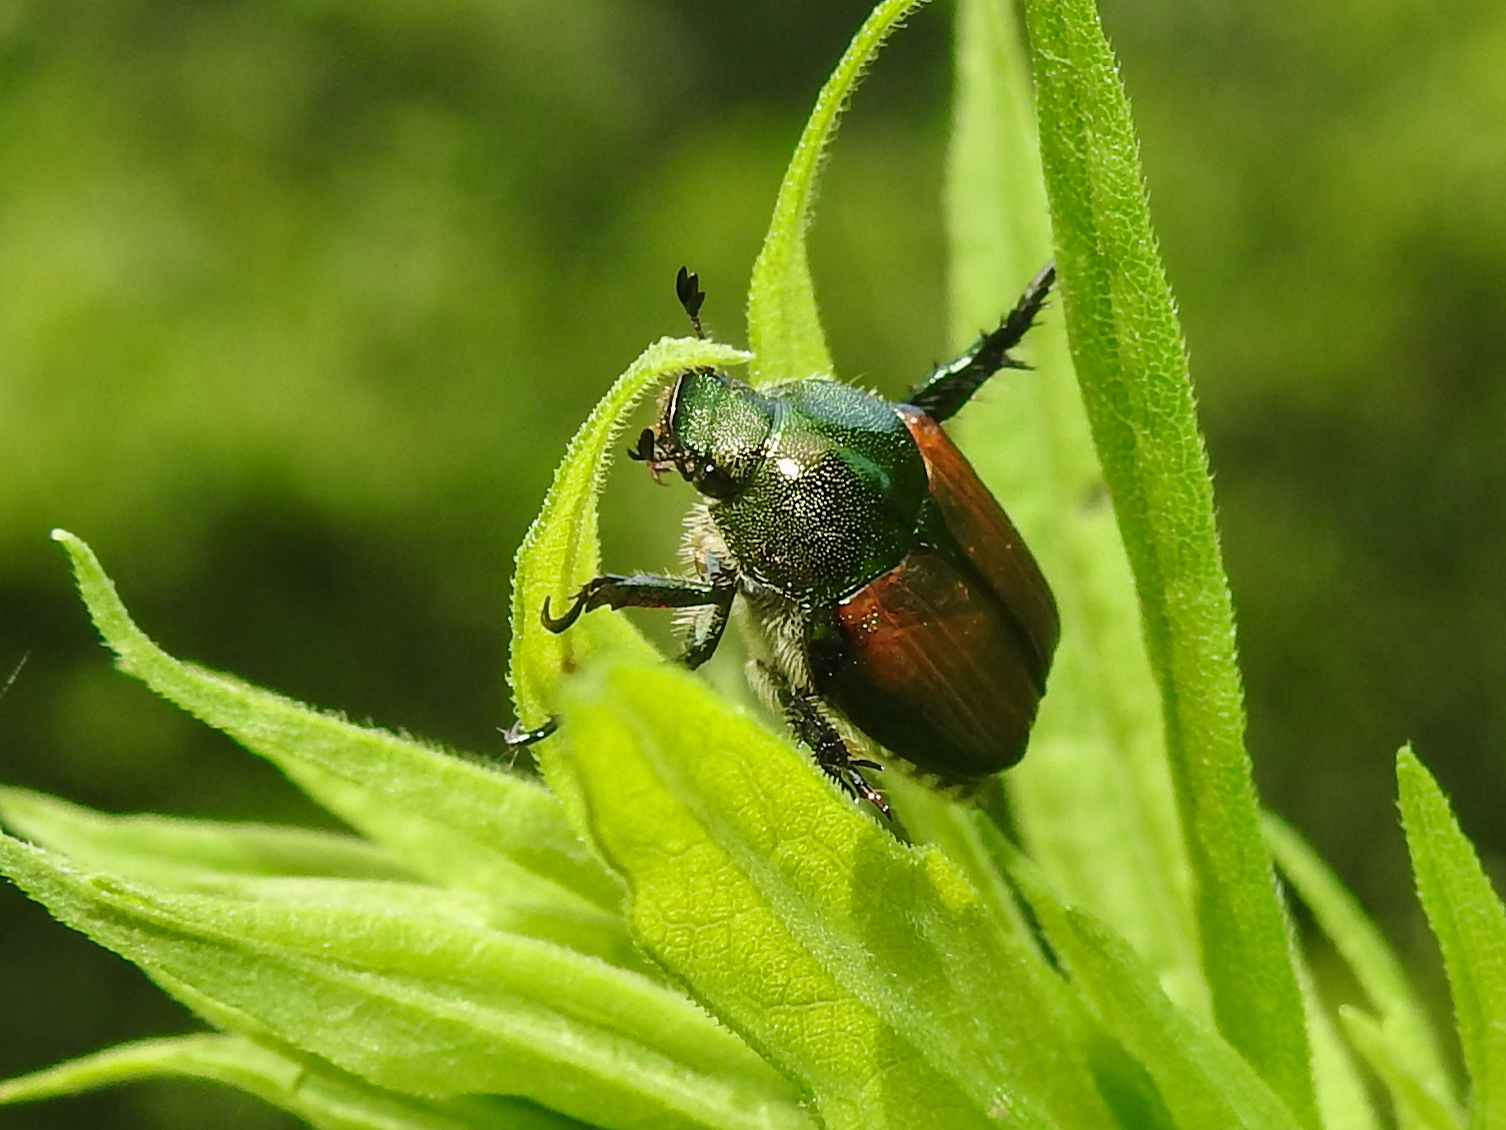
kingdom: Animalia
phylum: Arthropoda
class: Insecta
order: Coleoptera
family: Scarabaeidae
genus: Popillia
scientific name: Popillia japonica
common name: Japanese beetle
